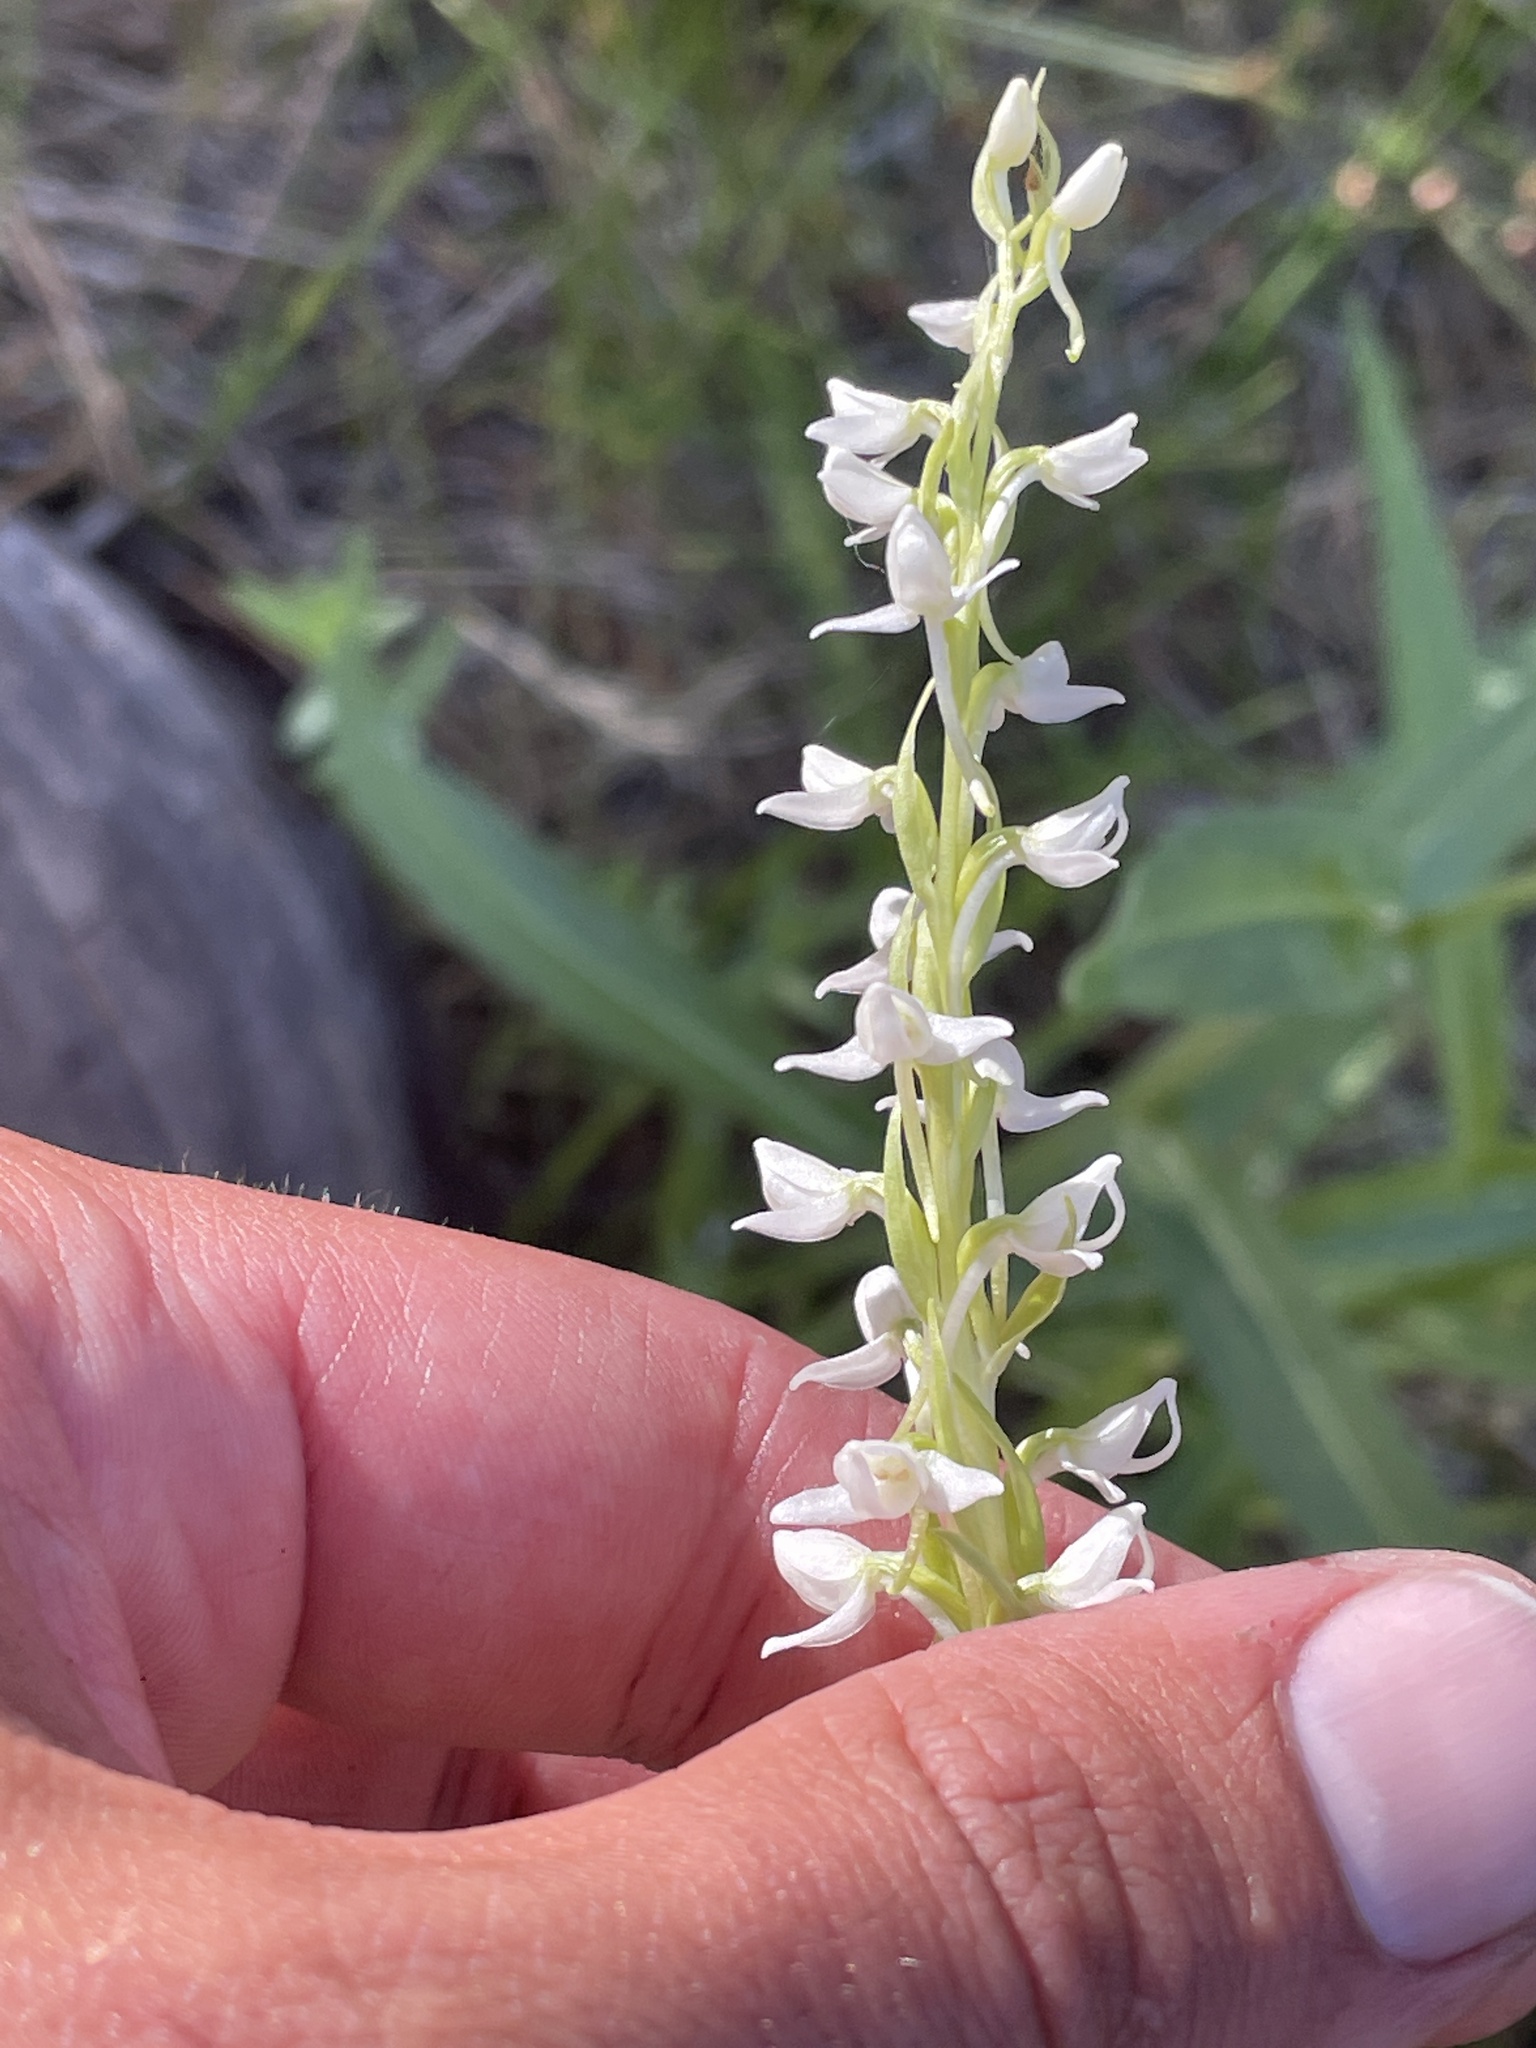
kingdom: Plantae
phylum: Tracheophyta
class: Liliopsida
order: Asparagales
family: Orchidaceae
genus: Platanthera
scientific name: Platanthera dilatata
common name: Bog candles
